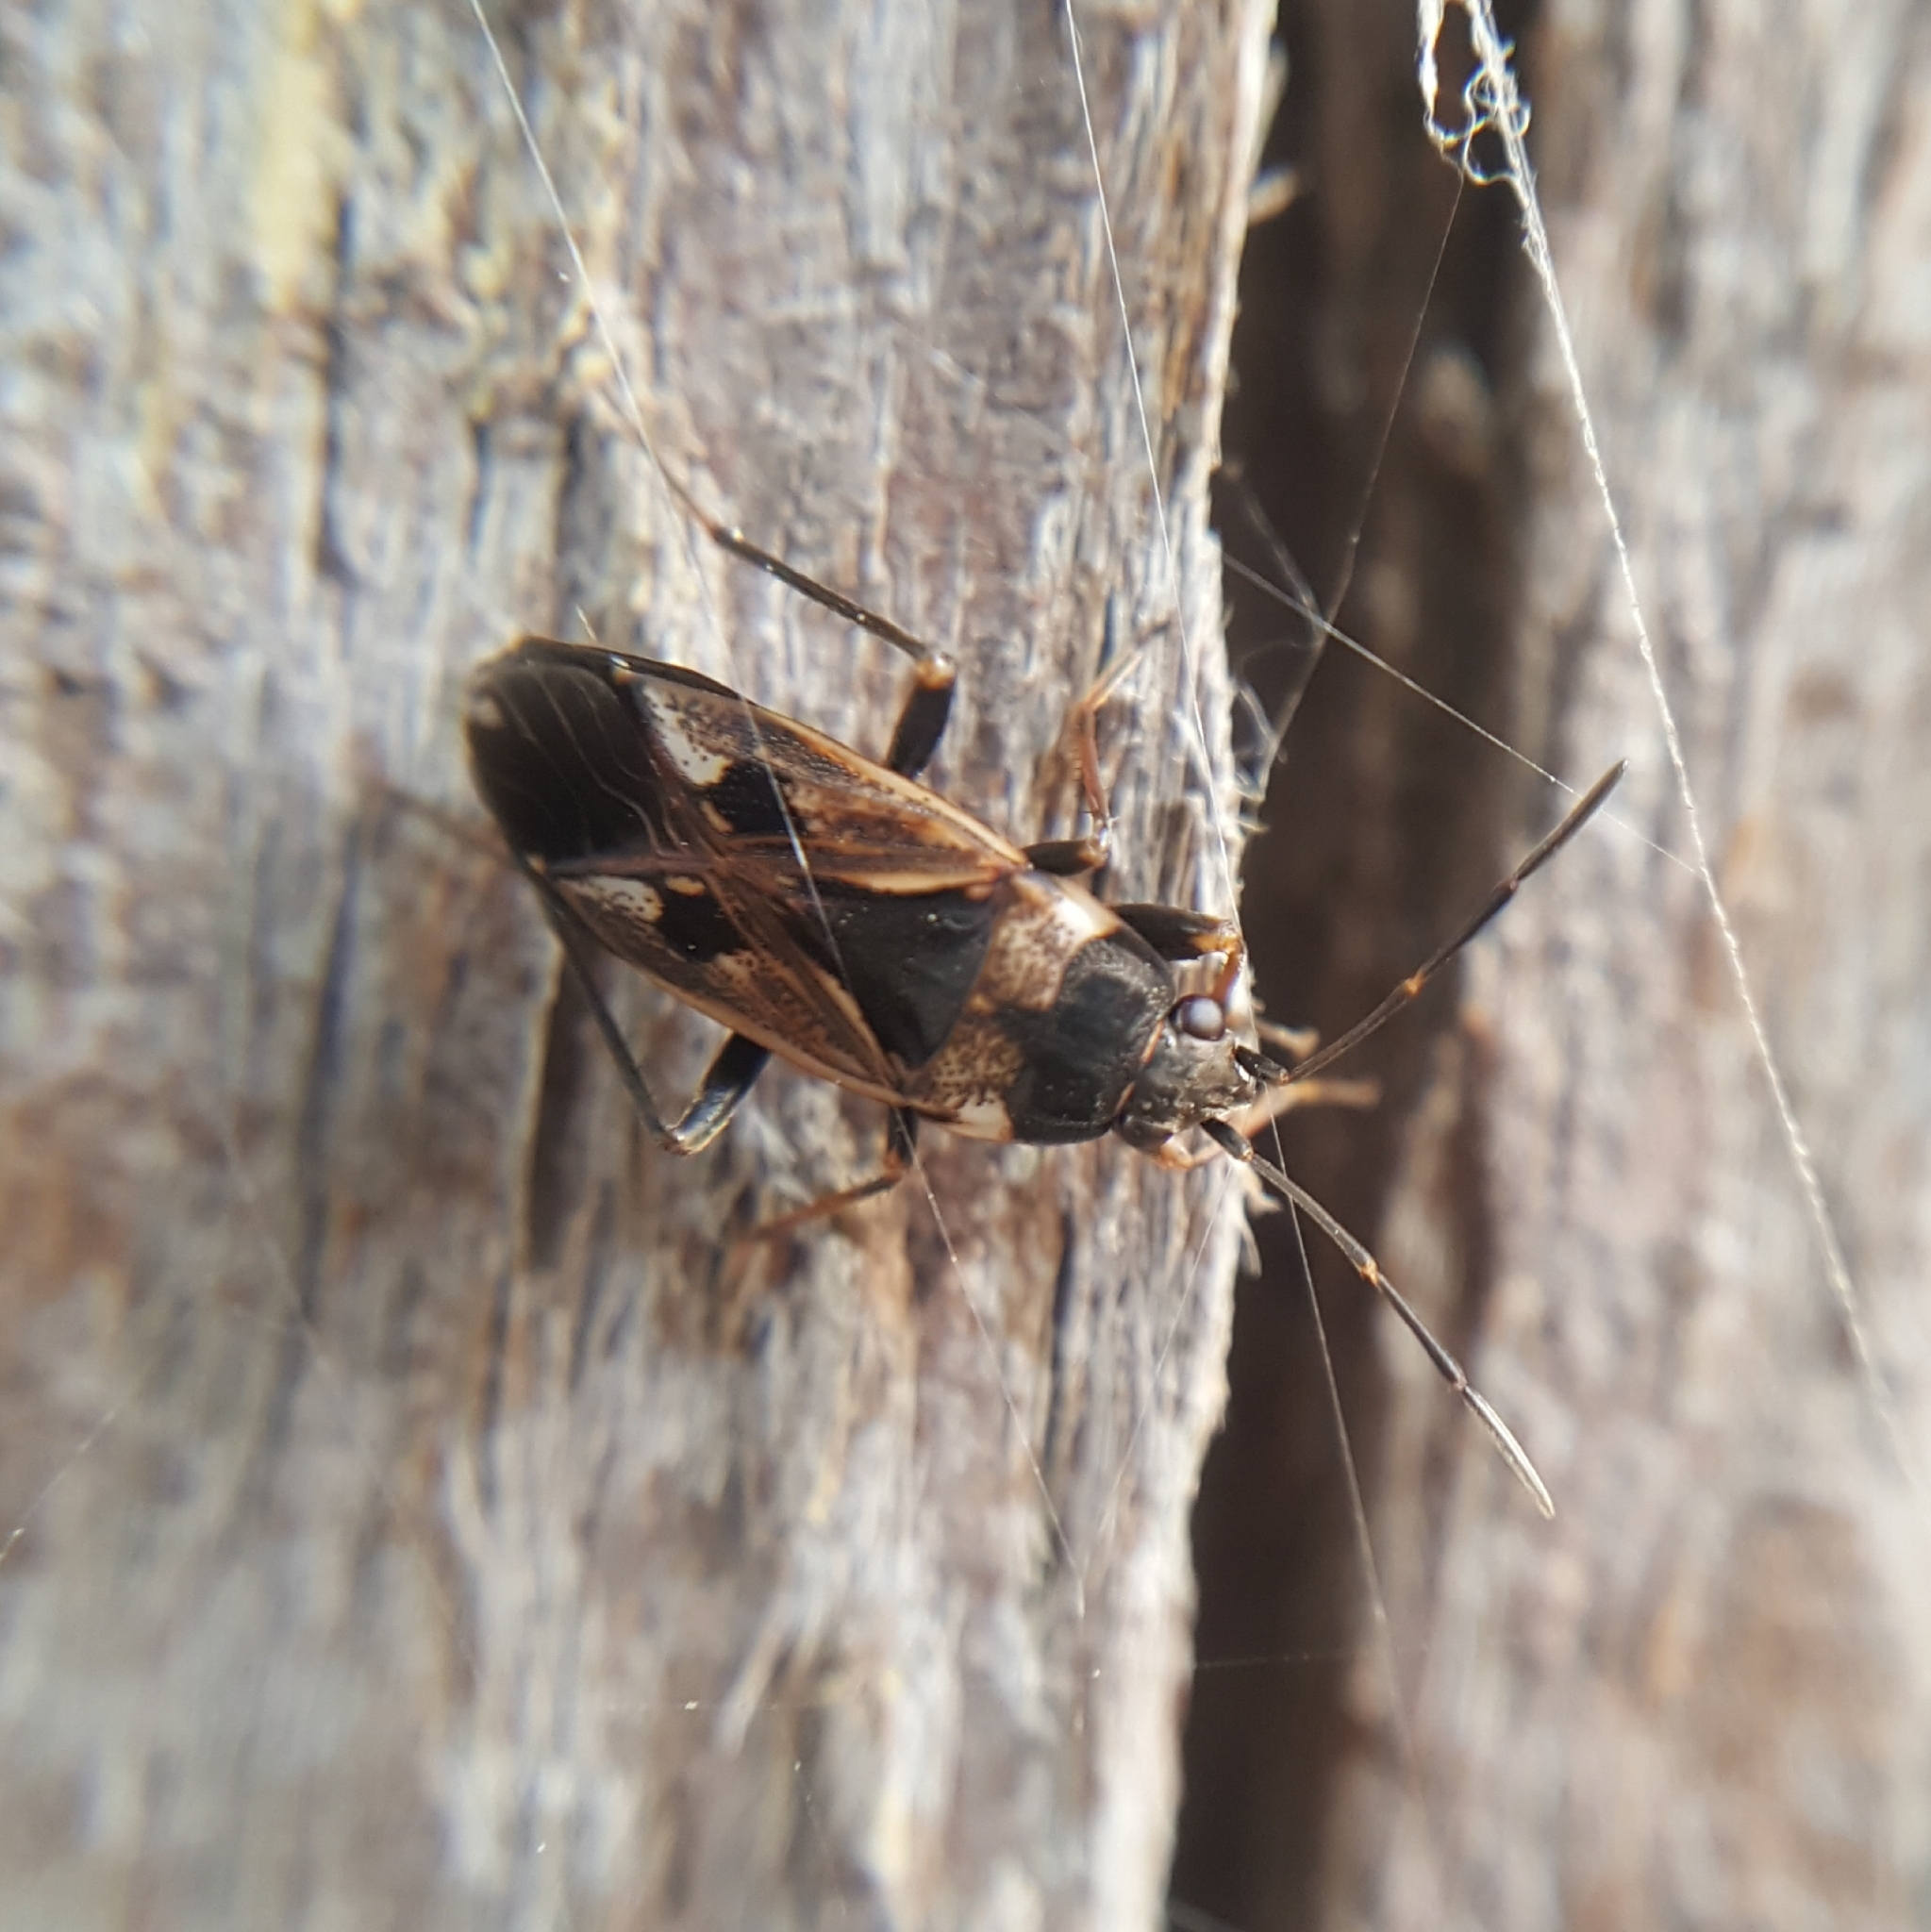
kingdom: Animalia
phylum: Arthropoda
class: Insecta
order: Hemiptera
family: Rhyparochromidae
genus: Rhyparochromus
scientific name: Rhyparochromus vulgaris
